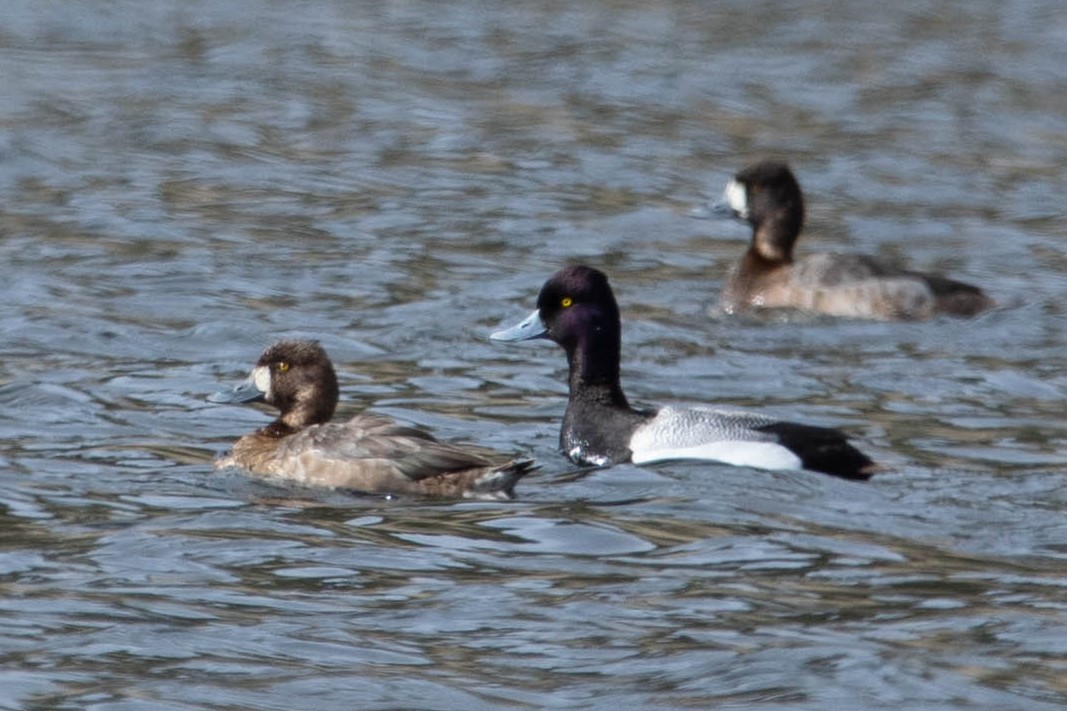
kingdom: Animalia
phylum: Chordata
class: Aves
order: Anseriformes
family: Anatidae
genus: Aythya
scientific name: Aythya affinis
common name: Lesser scaup
